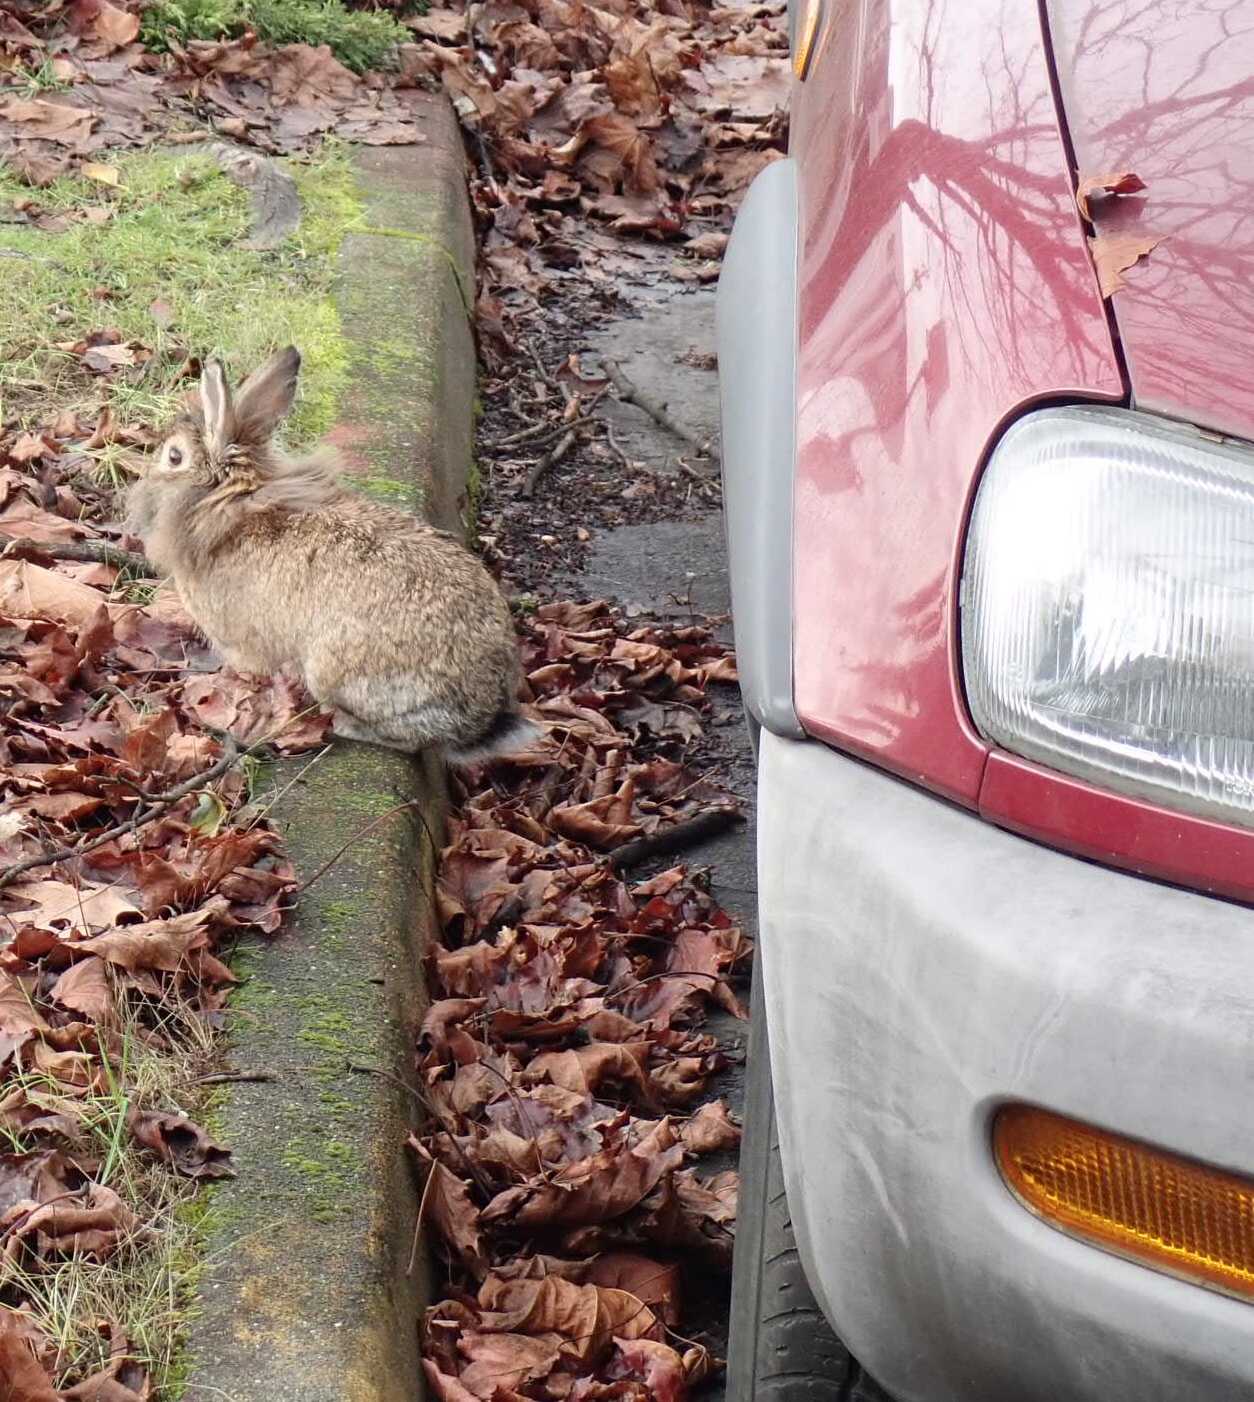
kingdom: Animalia
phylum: Chordata
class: Mammalia
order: Lagomorpha
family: Leporidae
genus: Oryctolagus
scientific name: Oryctolagus cuniculus
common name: European rabbit
